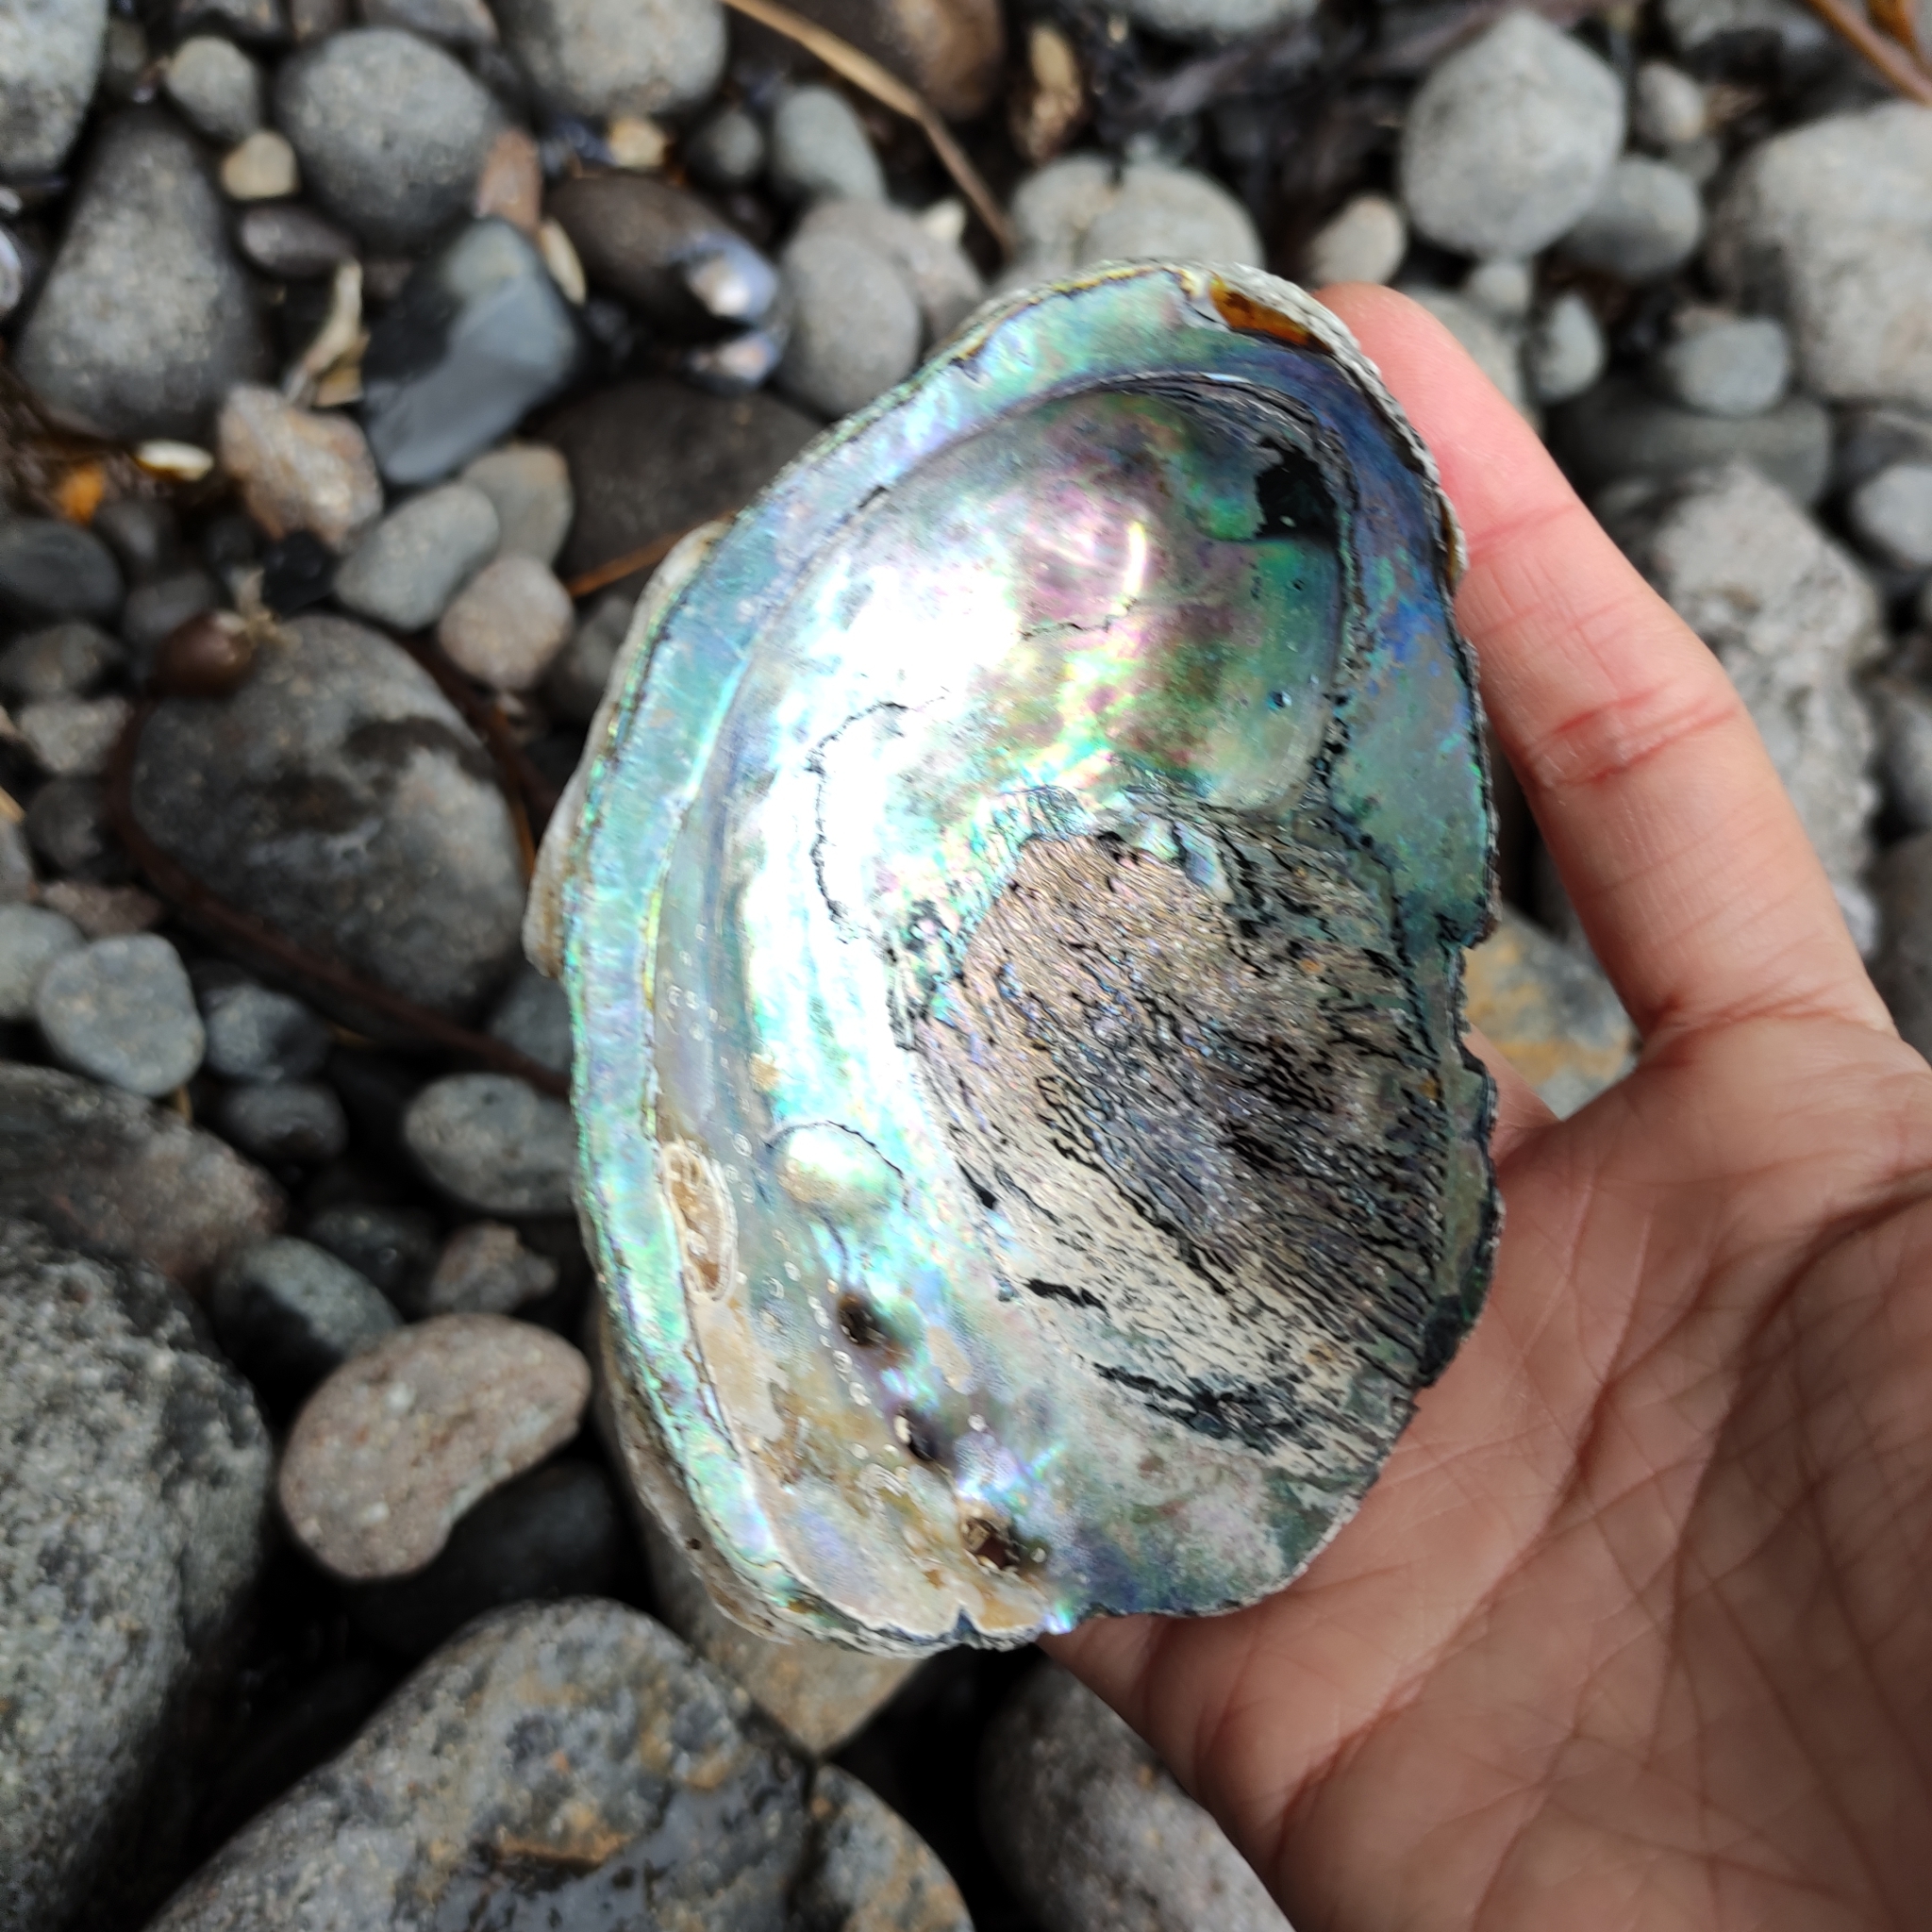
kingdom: Animalia
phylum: Mollusca
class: Gastropoda
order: Lepetellida
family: Haliotidae
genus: Haliotis
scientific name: Haliotis iris
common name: Abalone
